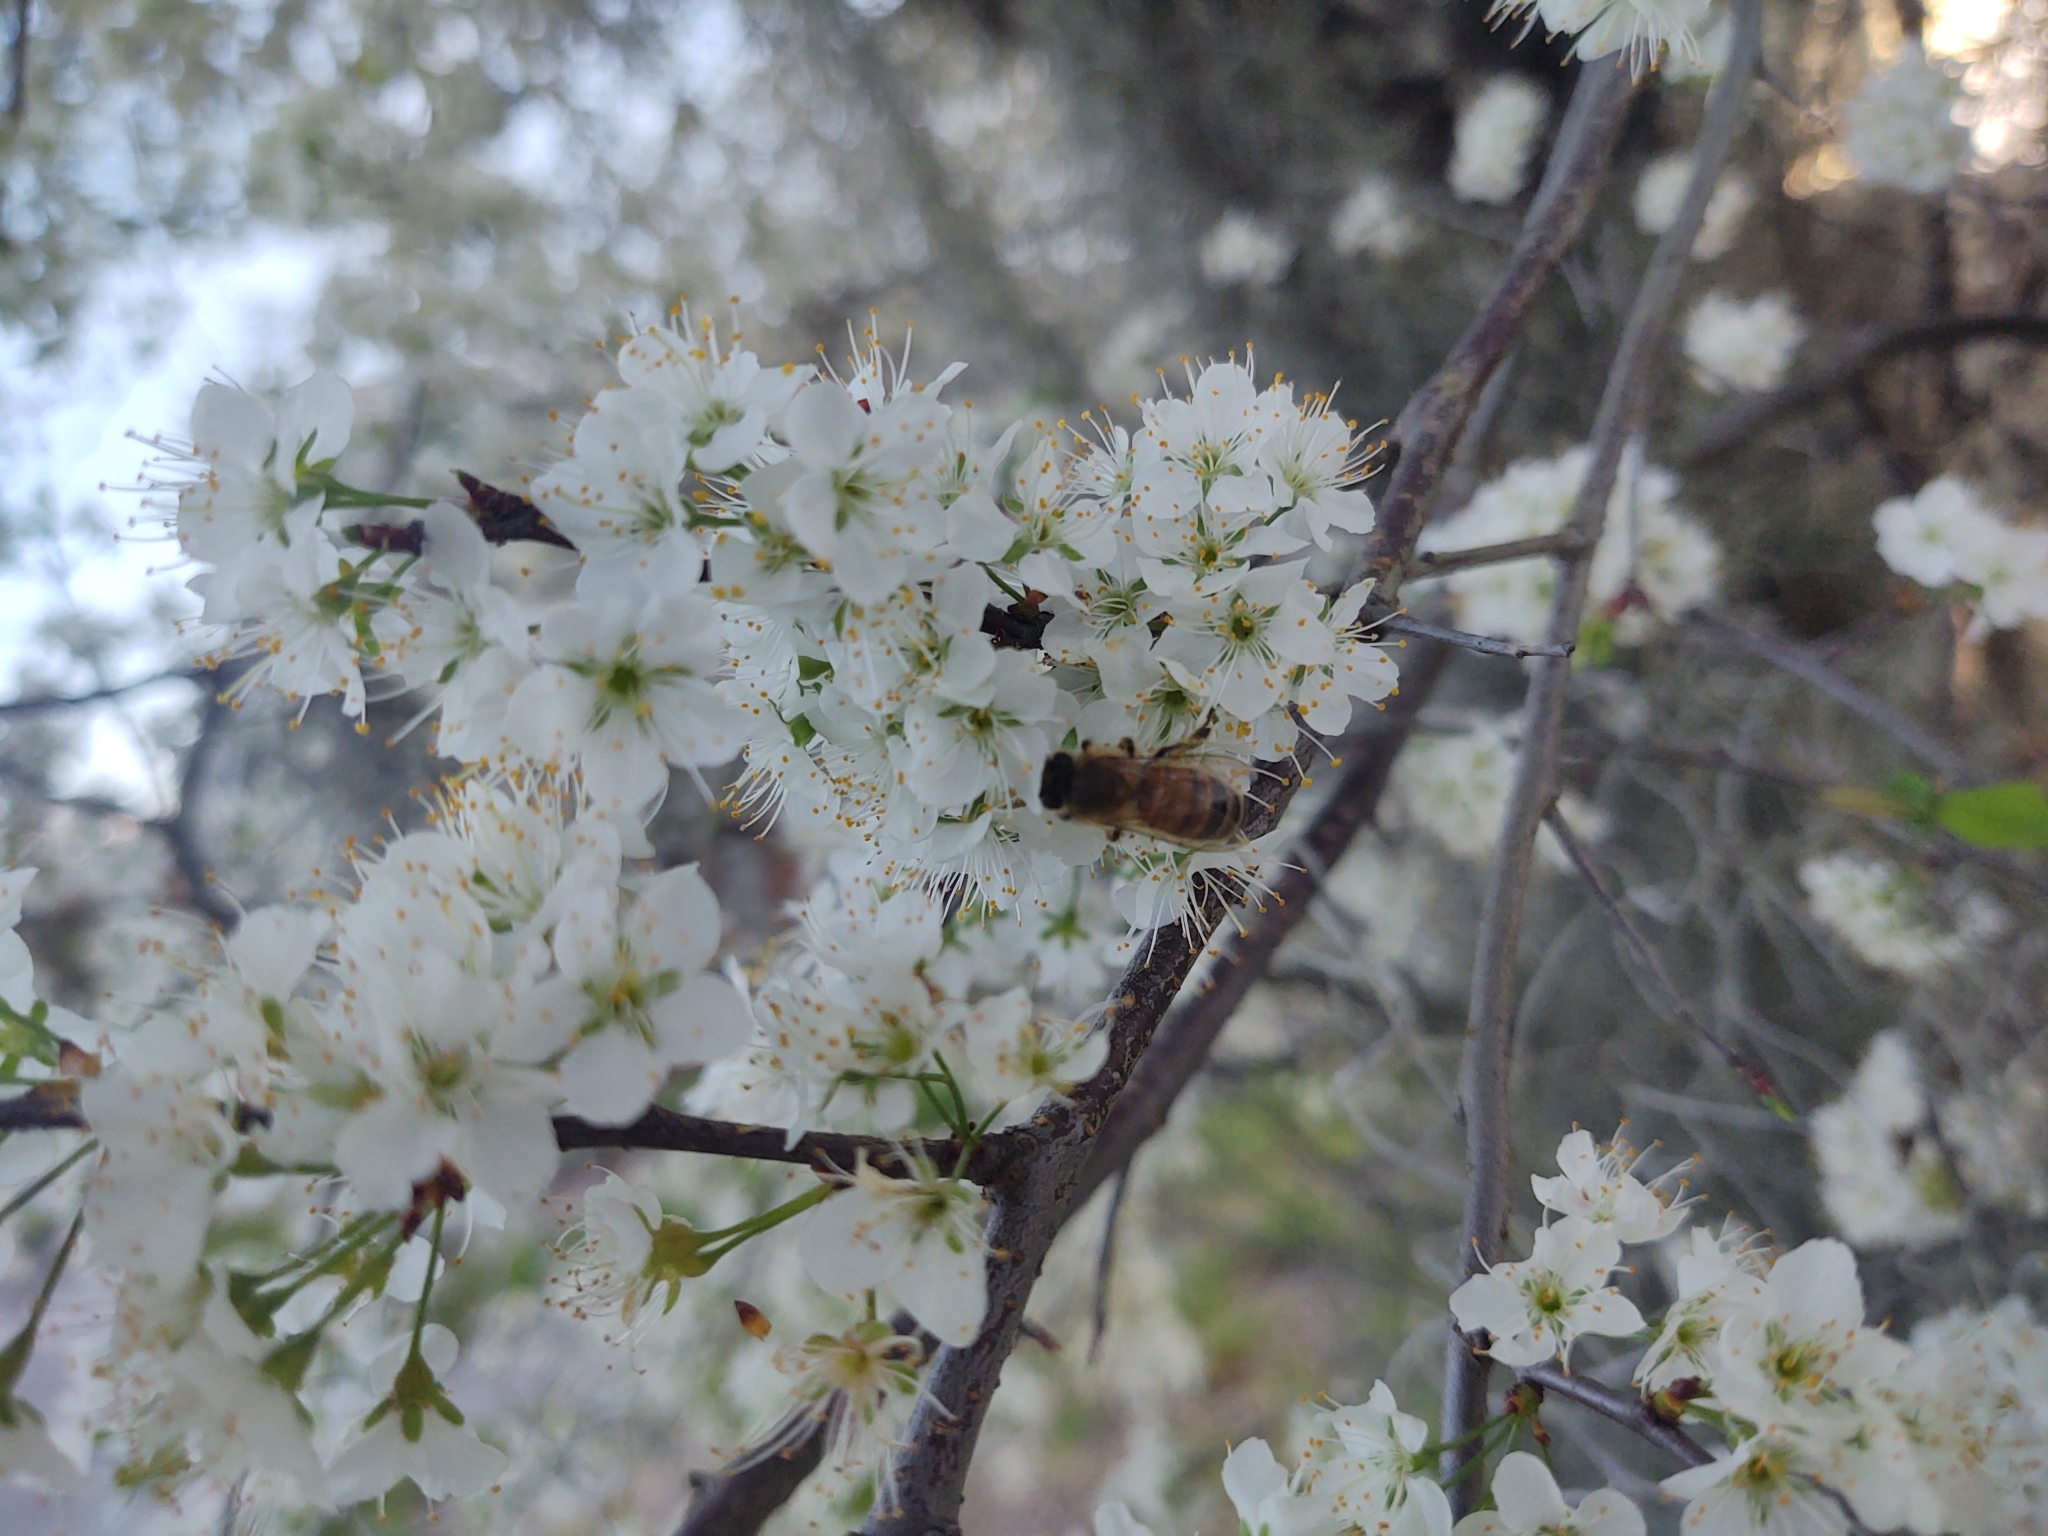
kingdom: Animalia
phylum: Arthropoda
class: Insecta
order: Hymenoptera
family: Apidae
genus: Apis
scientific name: Apis mellifera
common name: Honey bee
